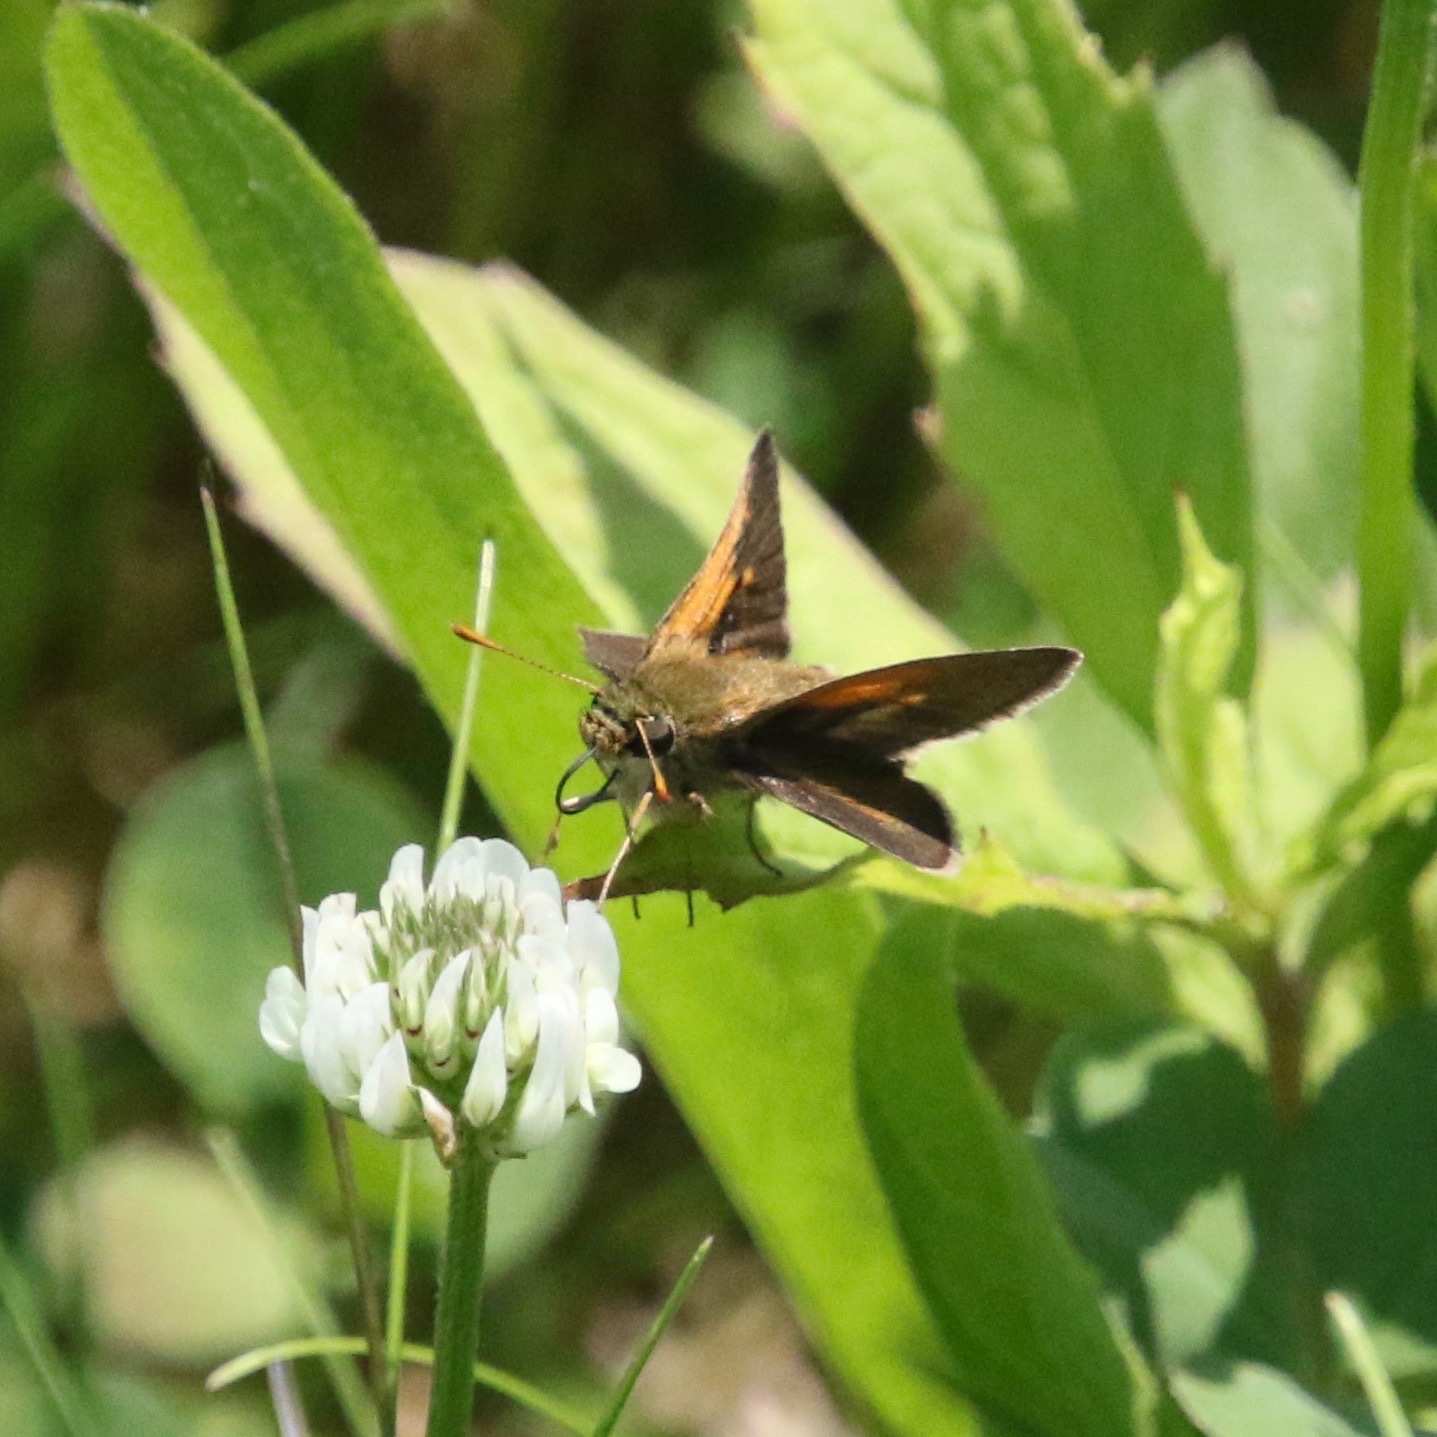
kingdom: Animalia
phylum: Arthropoda
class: Insecta
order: Lepidoptera
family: Hesperiidae
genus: Polites
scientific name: Polites themistocles
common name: Tawny-edged skipper
